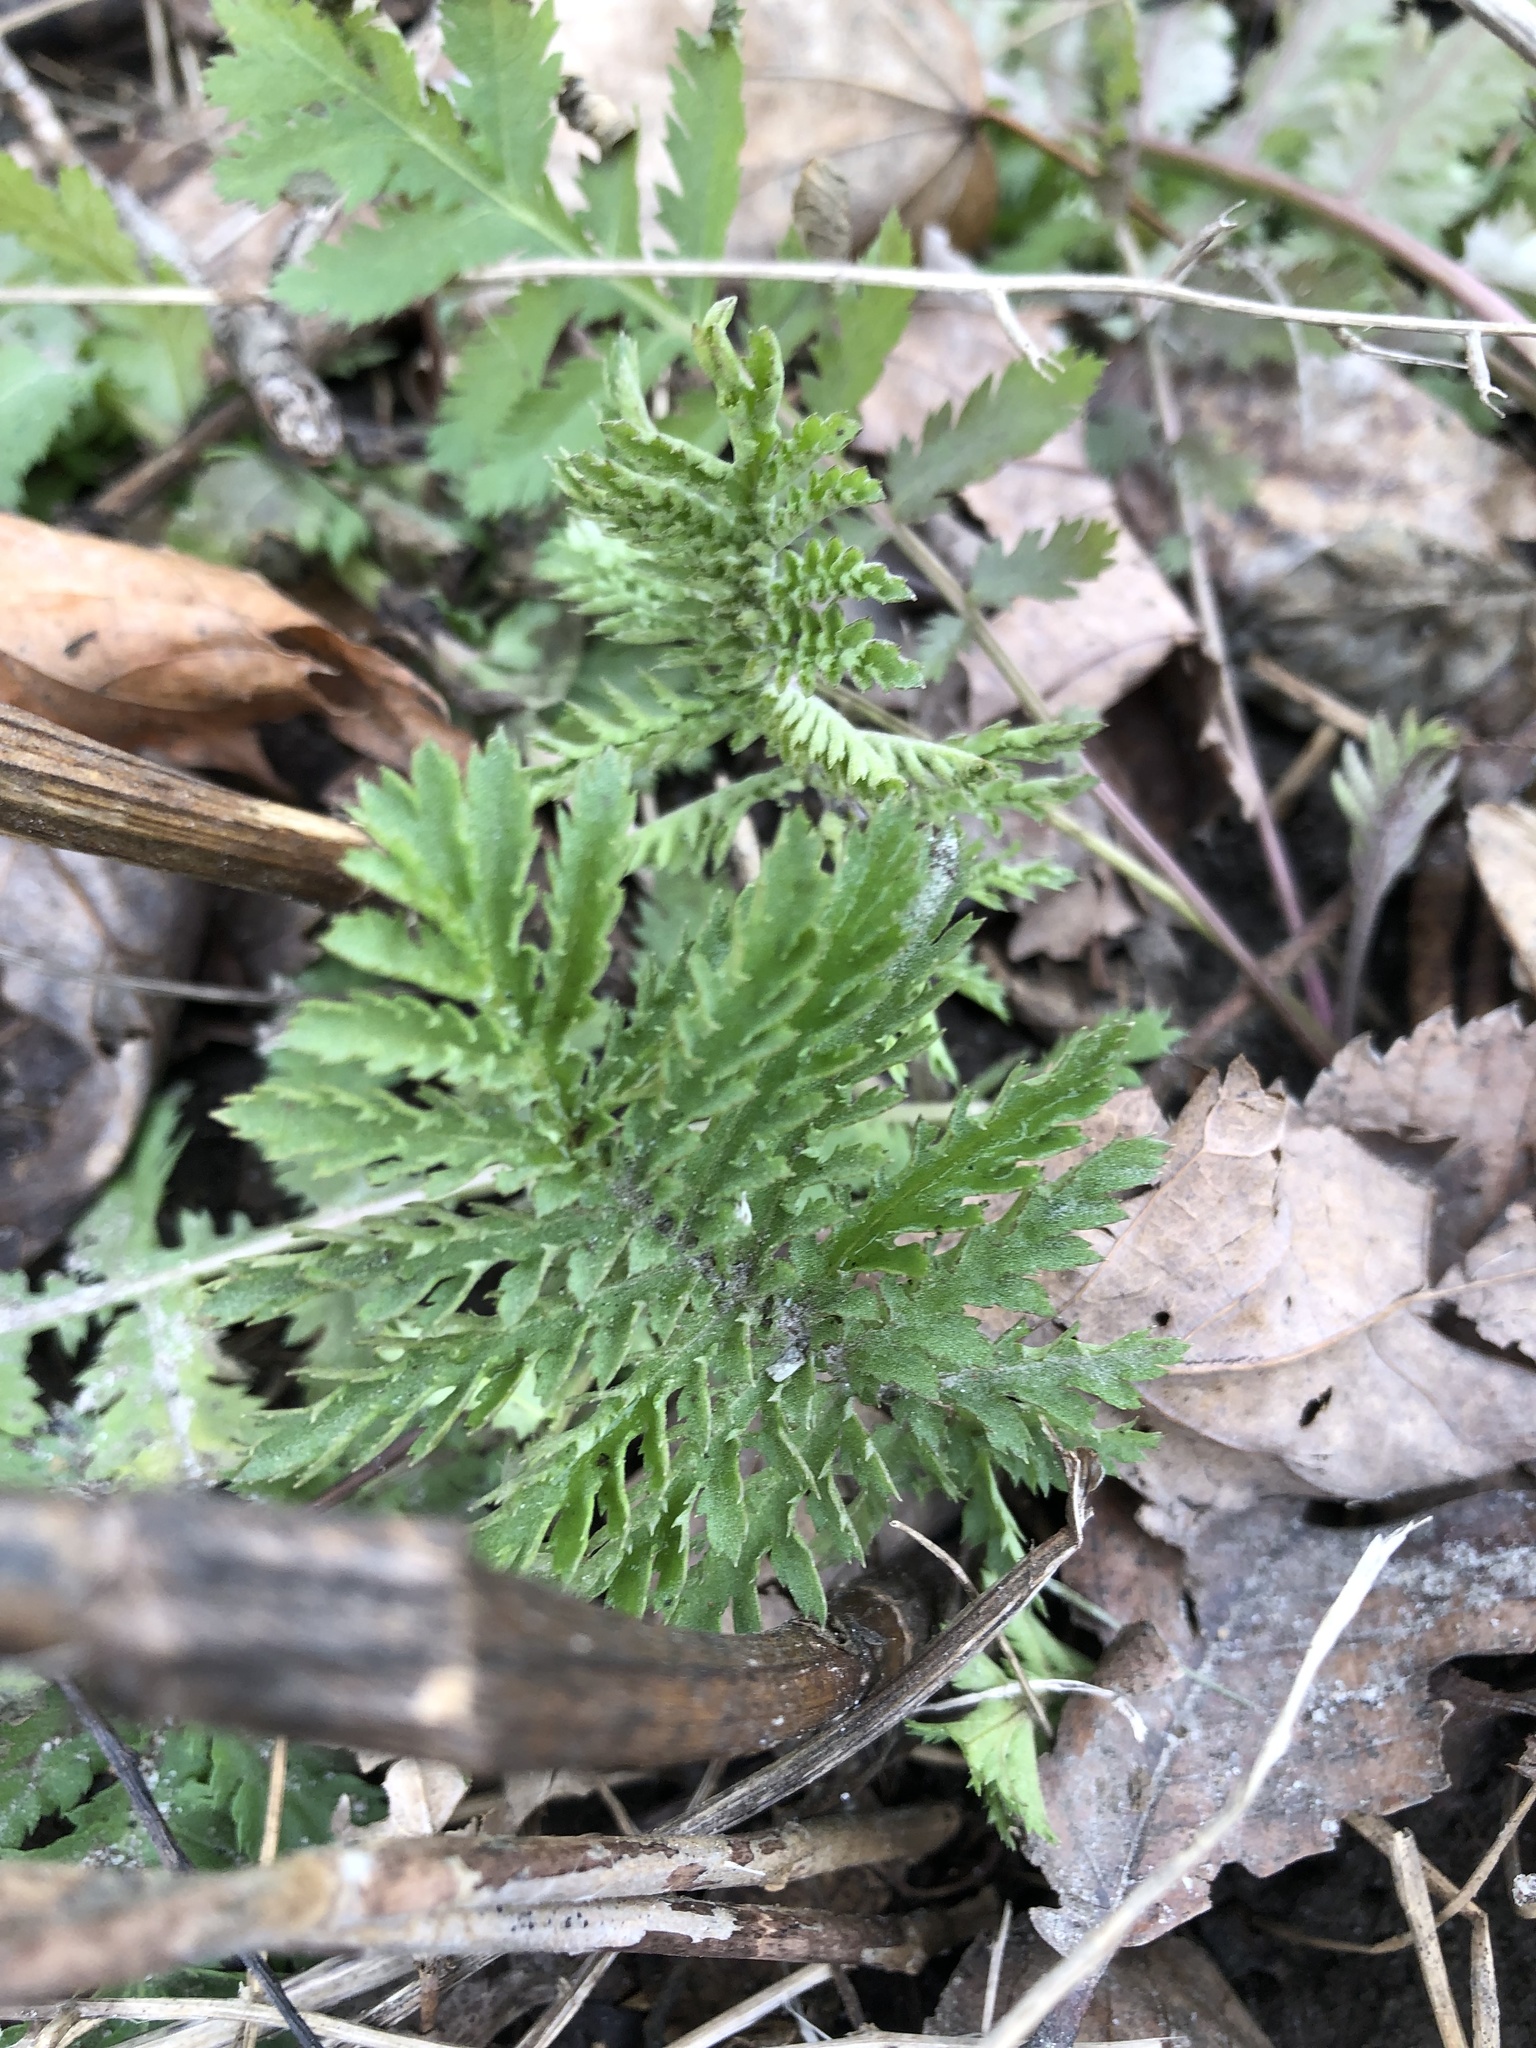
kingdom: Plantae
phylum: Tracheophyta
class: Magnoliopsida
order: Asterales
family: Asteraceae
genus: Tanacetum
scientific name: Tanacetum vulgare
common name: Common tansy
